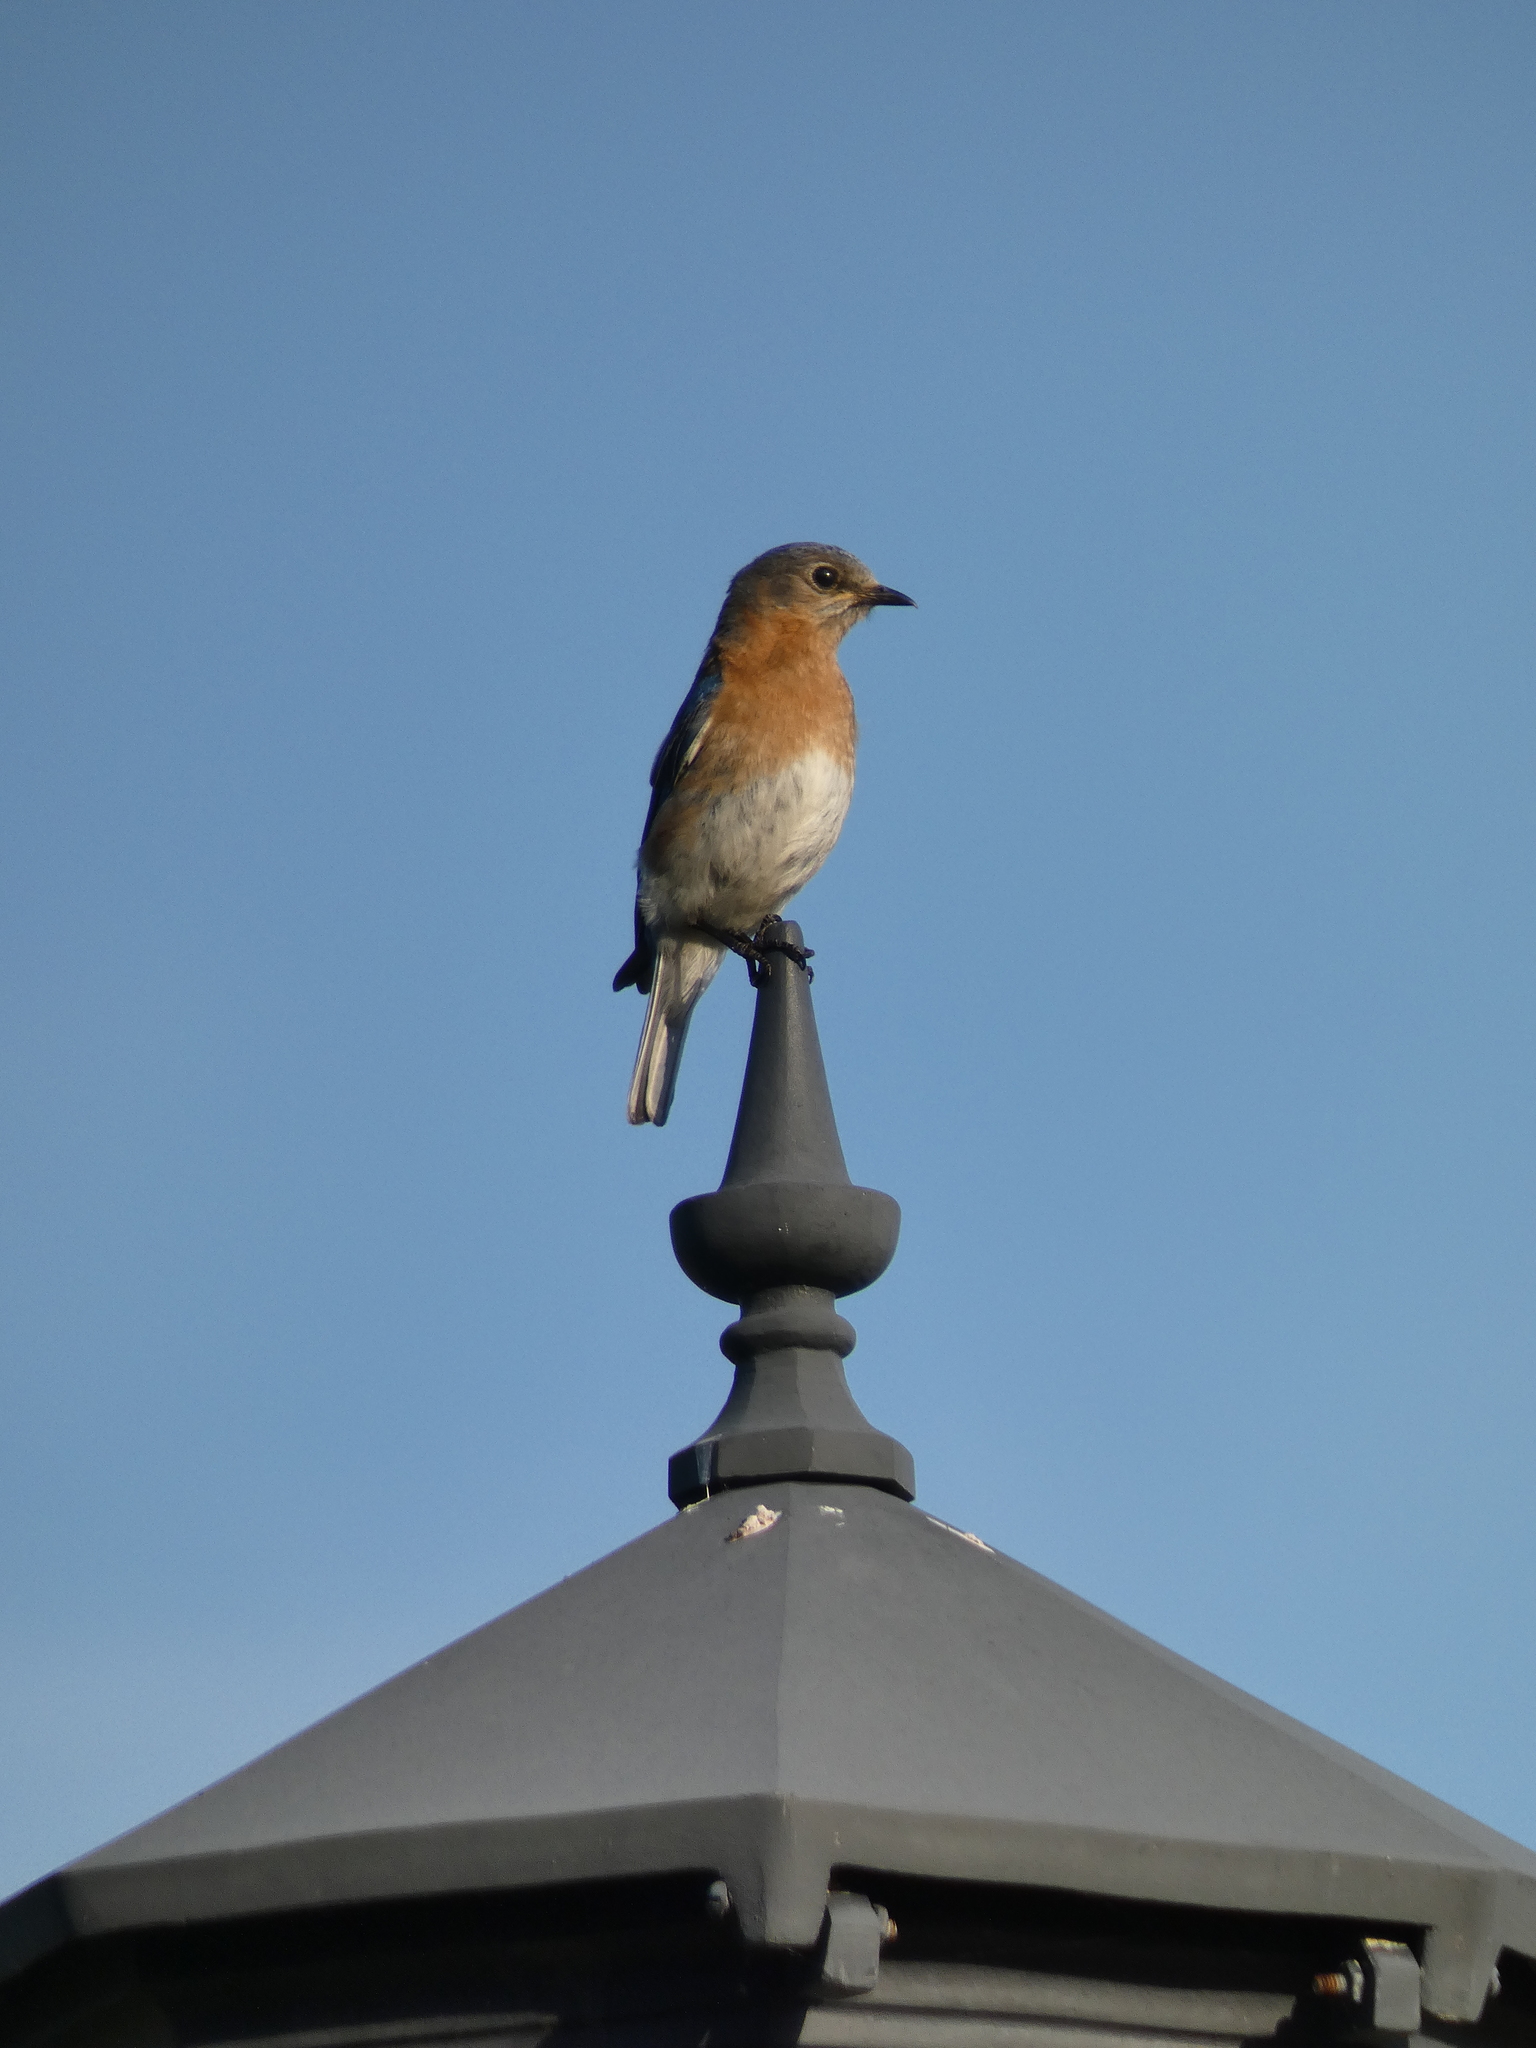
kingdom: Animalia
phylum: Chordata
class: Aves
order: Passeriformes
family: Turdidae
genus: Sialia
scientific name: Sialia sialis
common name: Eastern bluebird
